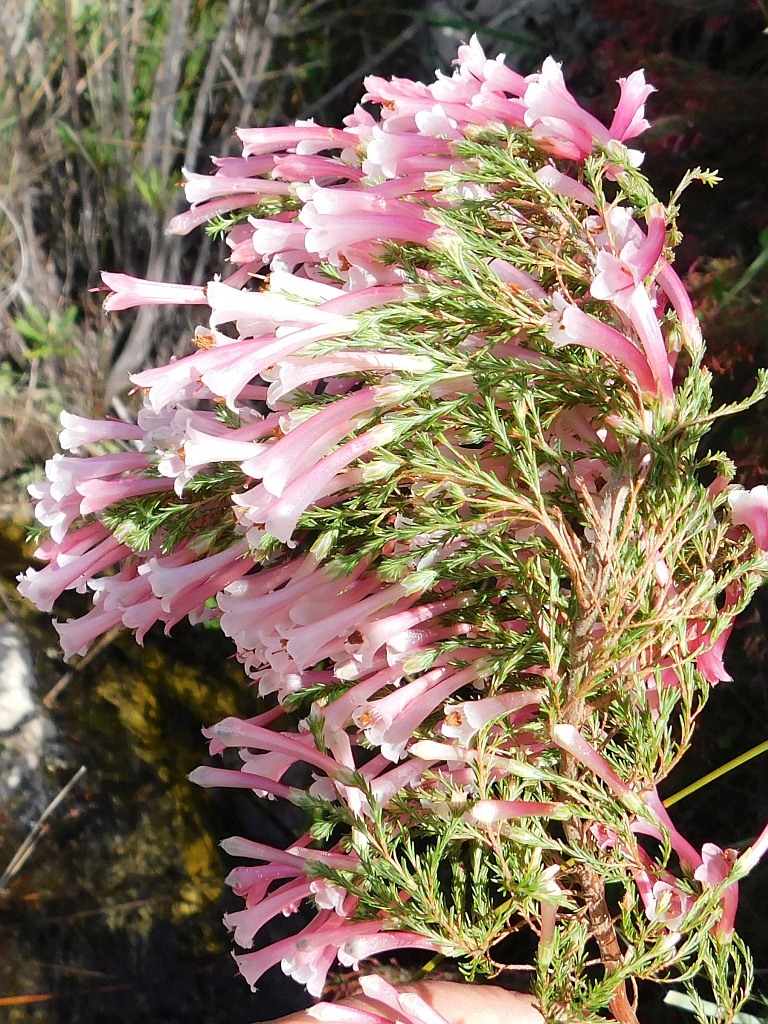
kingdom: Plantae
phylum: Tracheophyta
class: Magnoliopsida
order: Ericales
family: Ericaceae
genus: Erica
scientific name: Erica versicolor
